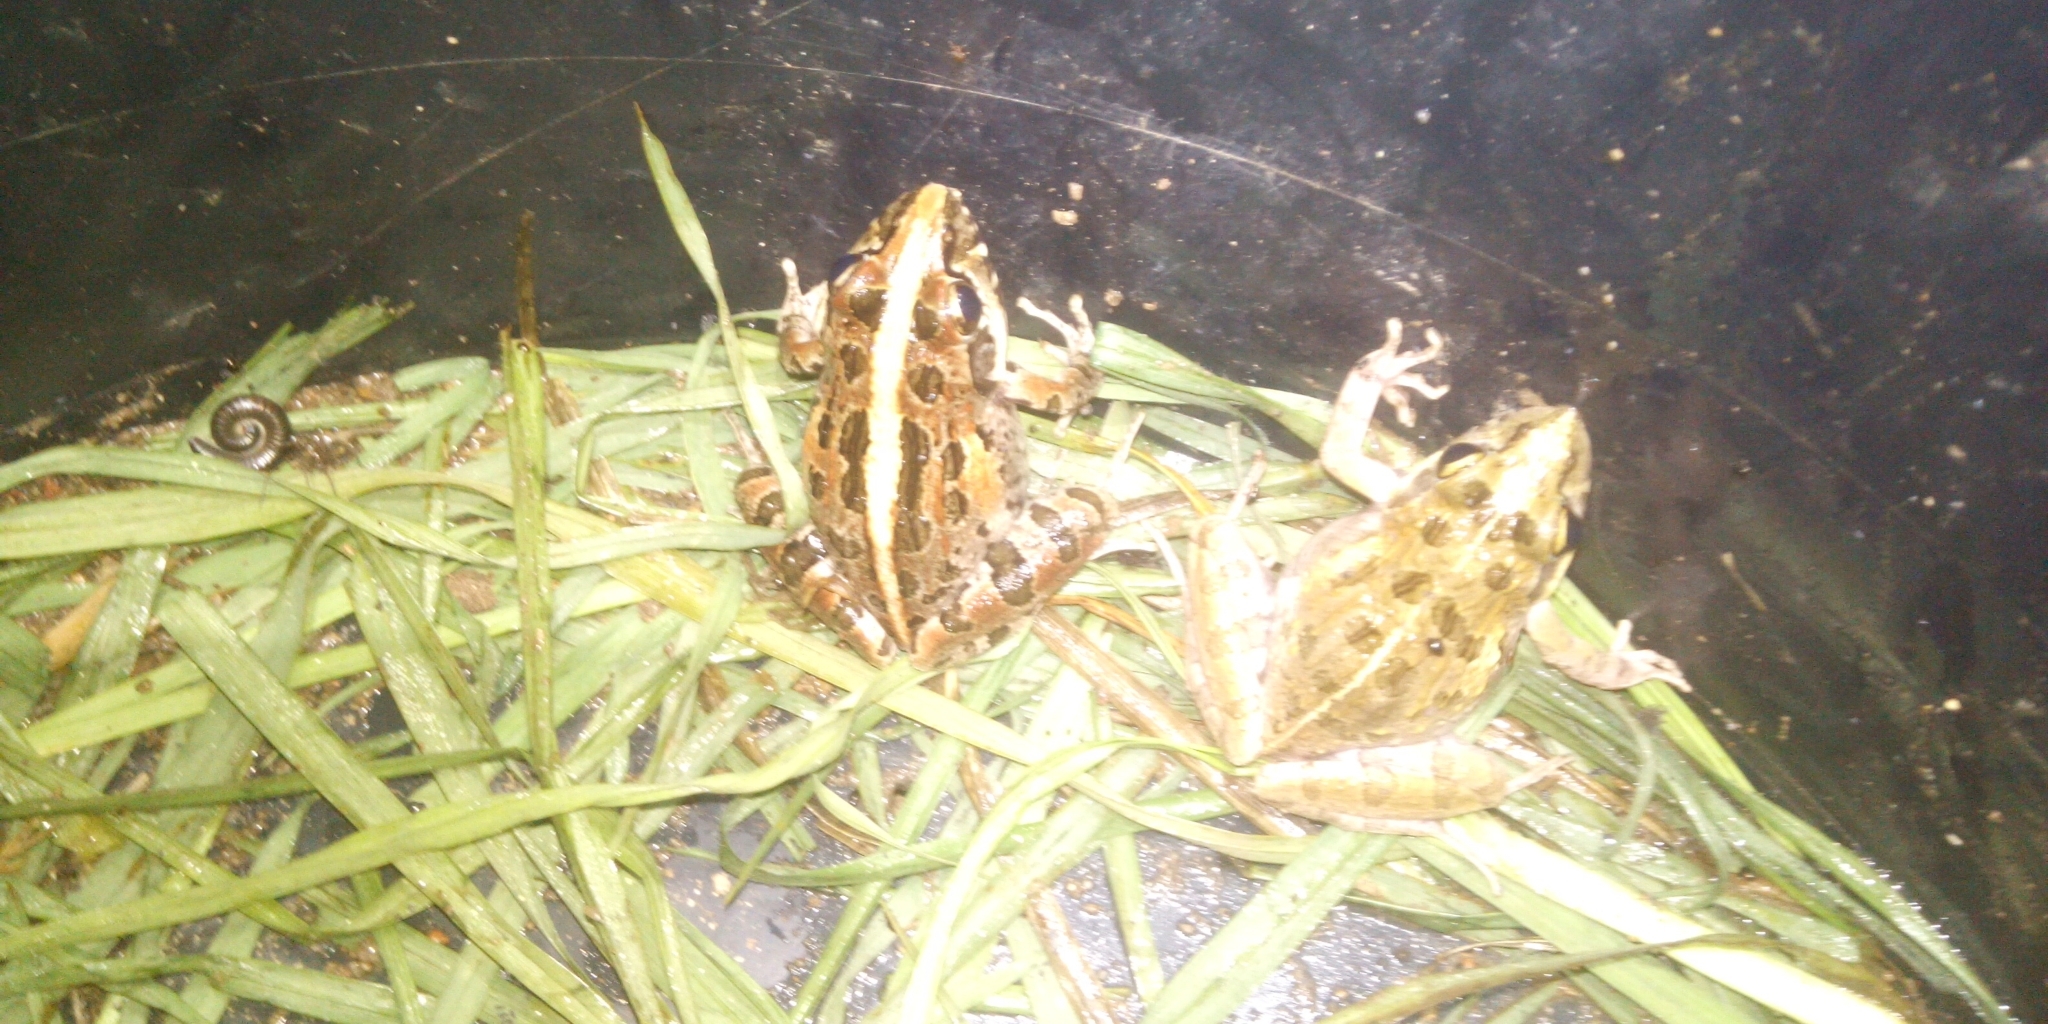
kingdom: Animalia
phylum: Chordata
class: Amphibia
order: Anura
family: Pyxicephalidae
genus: Strongylopus
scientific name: Strongylopus grayii
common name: Gray's stream frog
